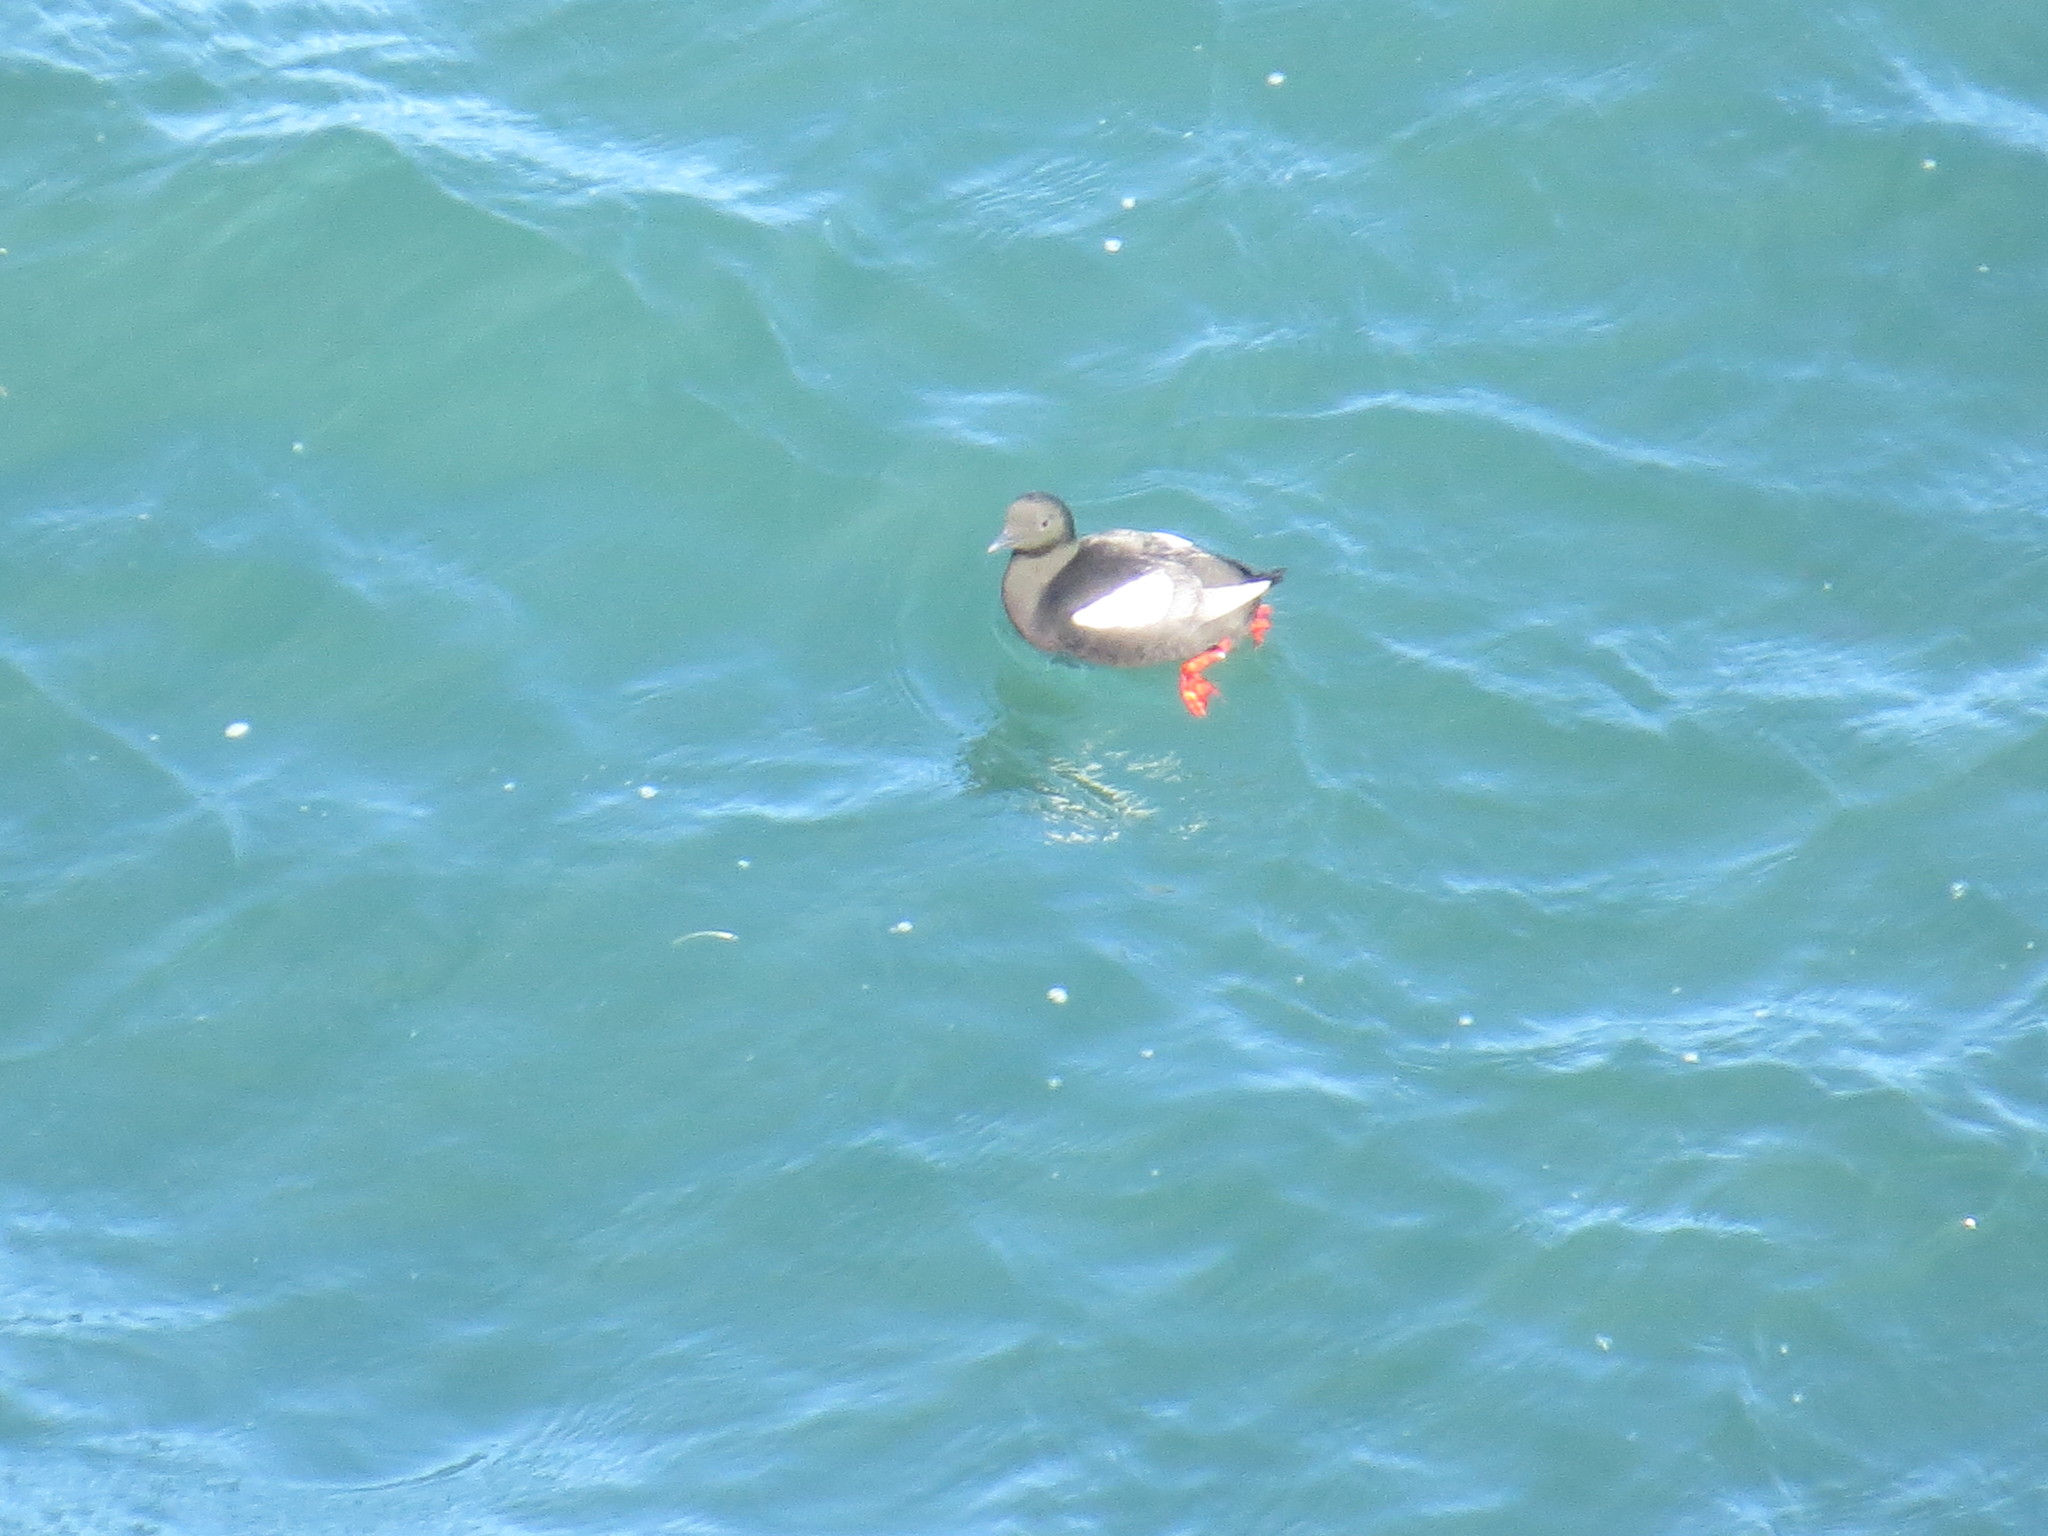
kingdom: Animalia
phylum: Chordata
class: Aves
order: Charadriiformes
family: Alcidae
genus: Cepphus
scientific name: Cepphus grylle
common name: Black guillemot
